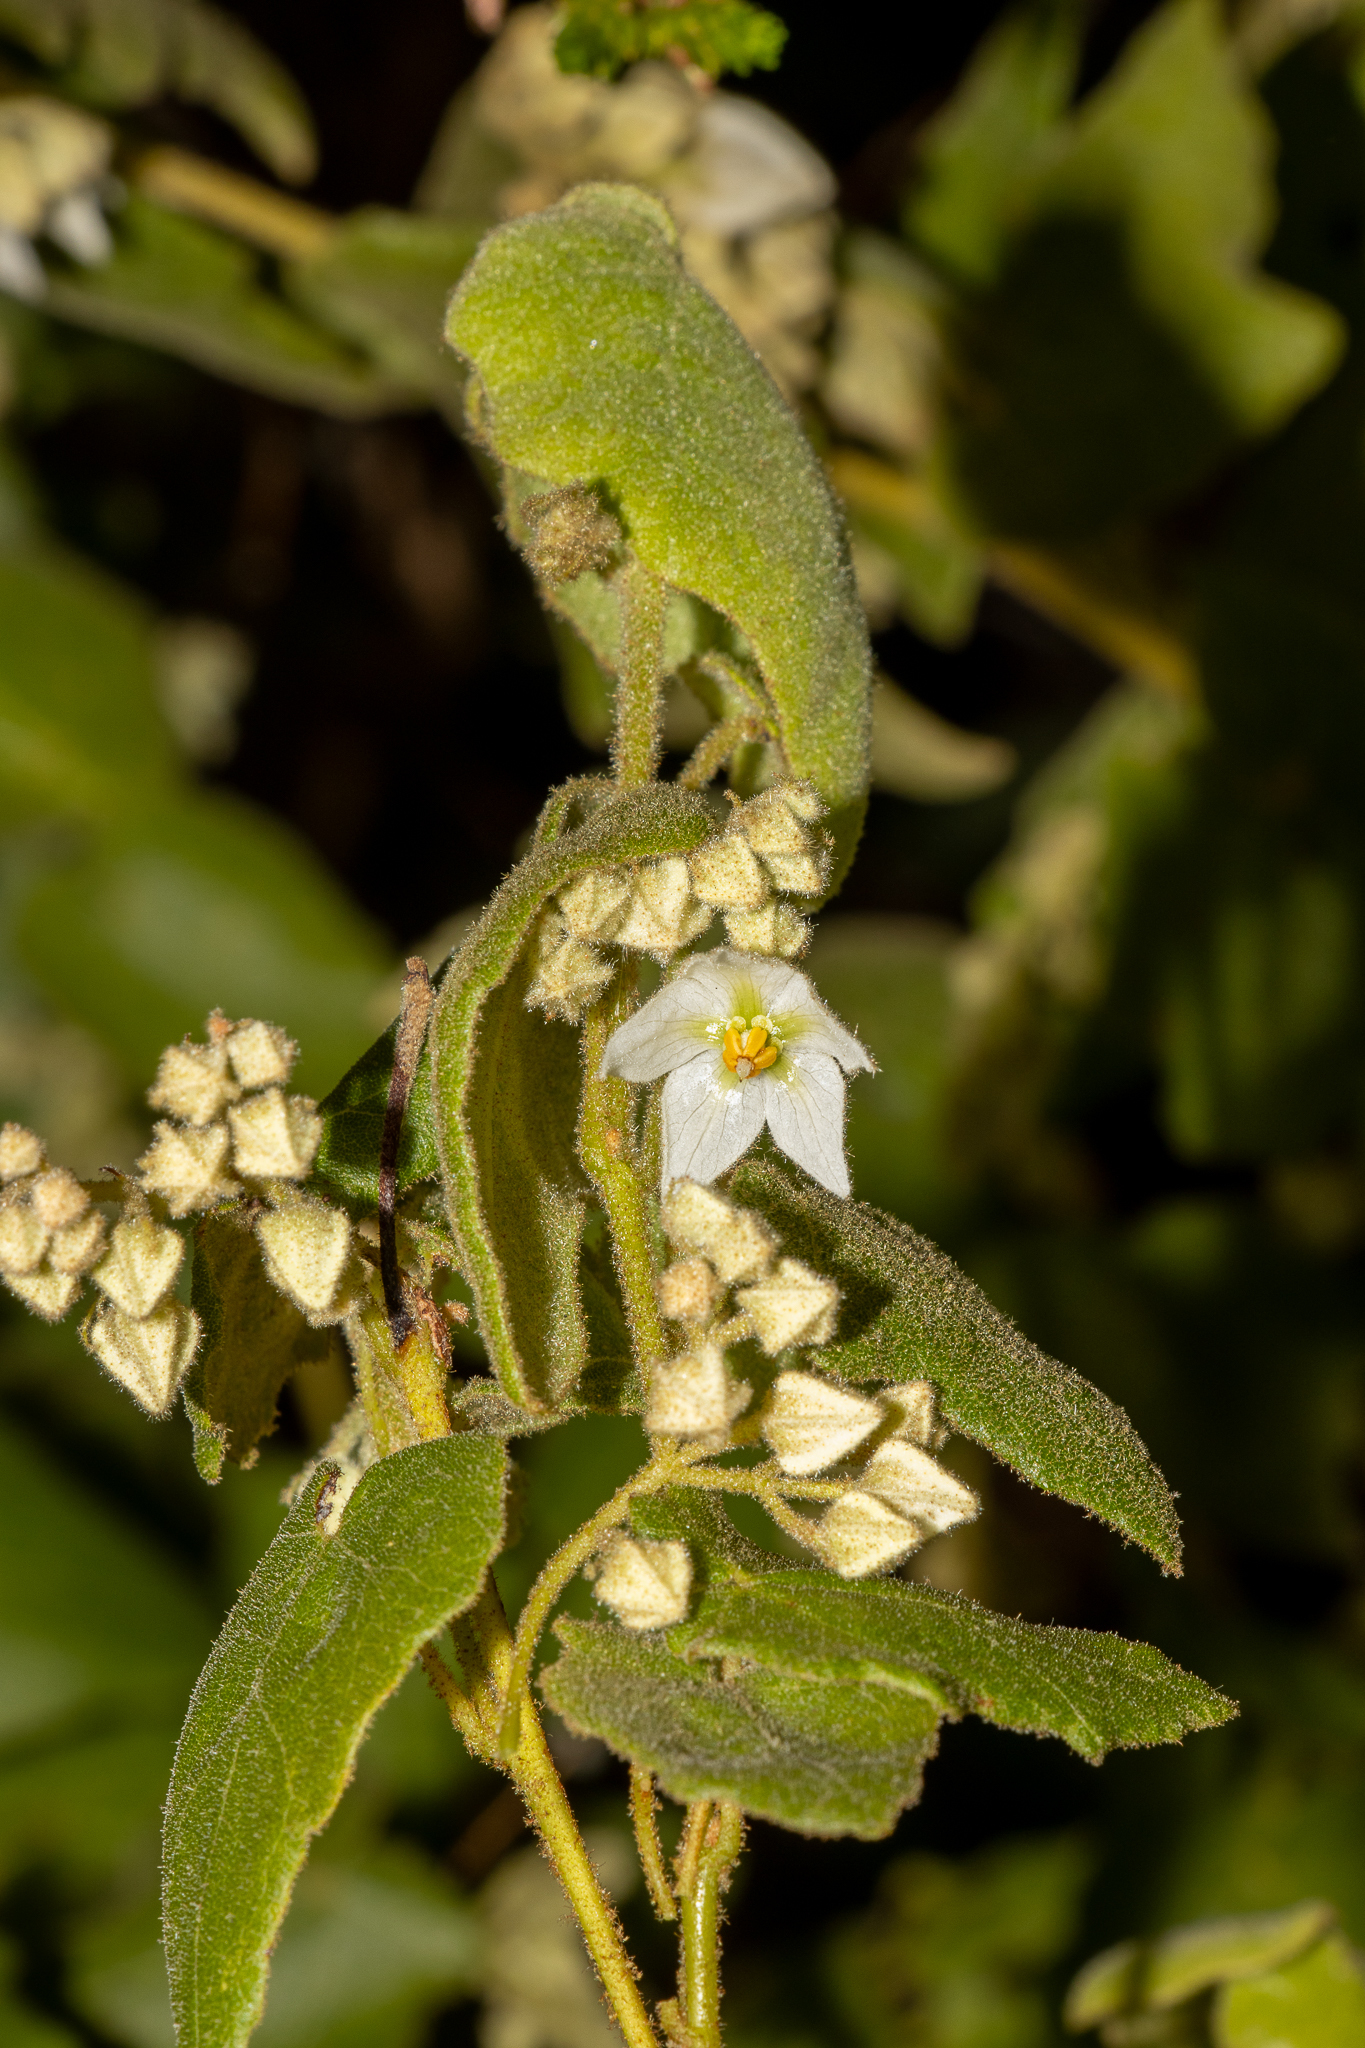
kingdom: Plantae
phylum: Tracheophyta
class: Magnoliopsida
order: Malvales
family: Malvaceae
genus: Lasiopetalum
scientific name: Lasiopetalum schulzenii
